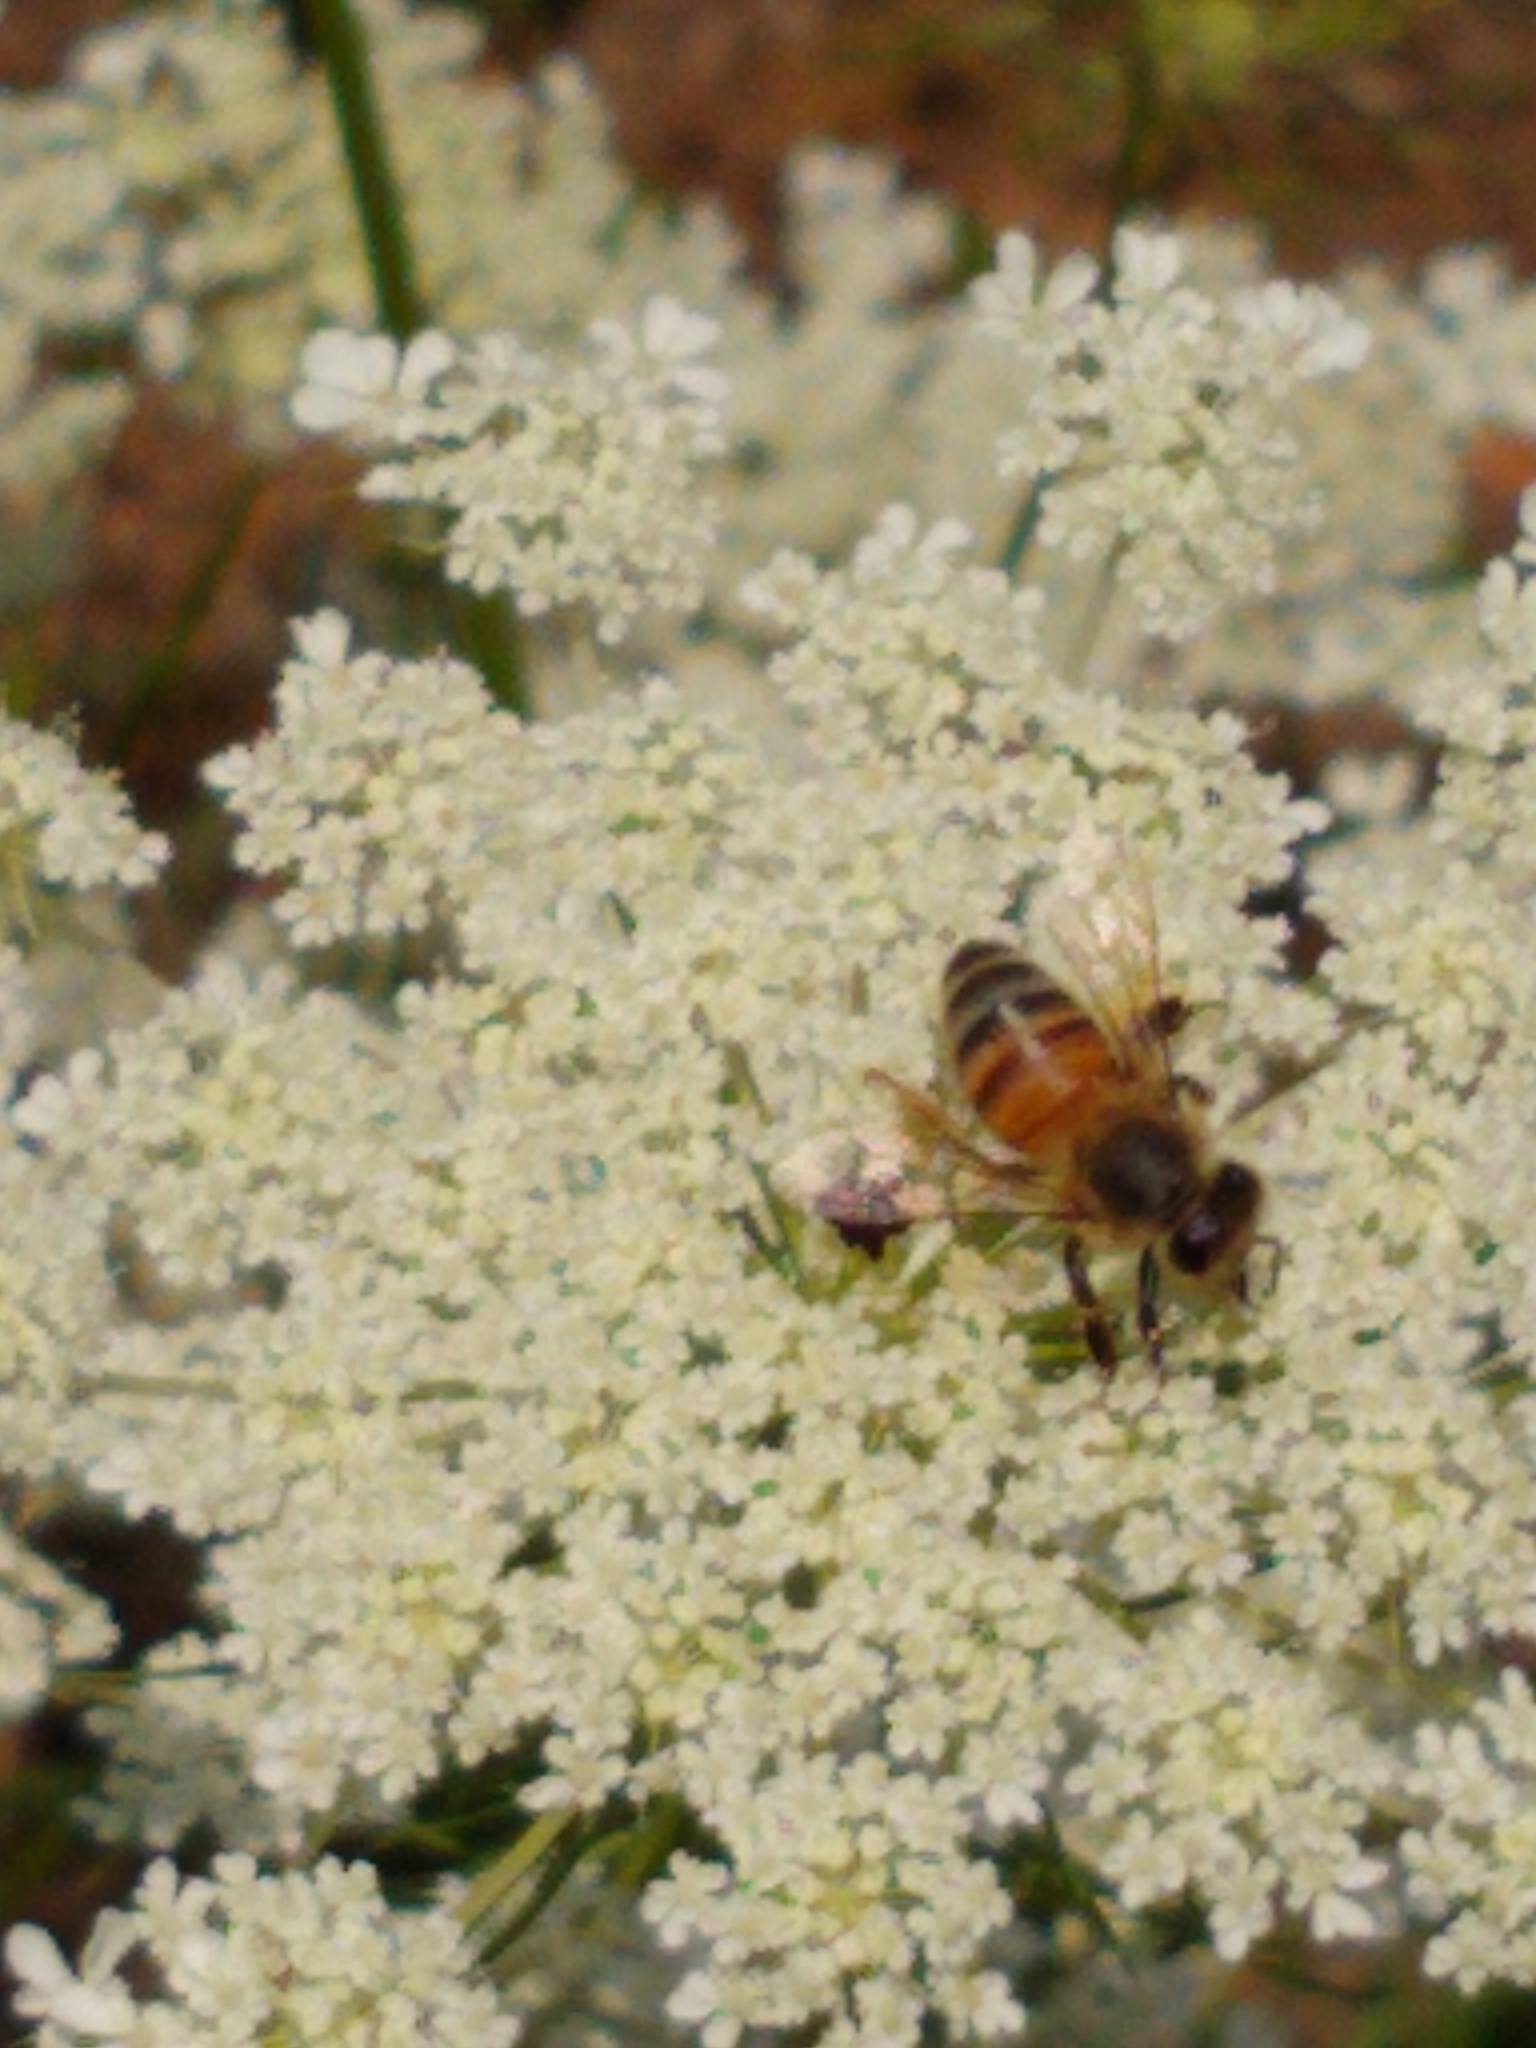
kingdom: Animalia
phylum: Arthropoda
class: Insecta
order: Hymenoptera
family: Apidae
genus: Apis
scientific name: Apis mellifera
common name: Honey bee
